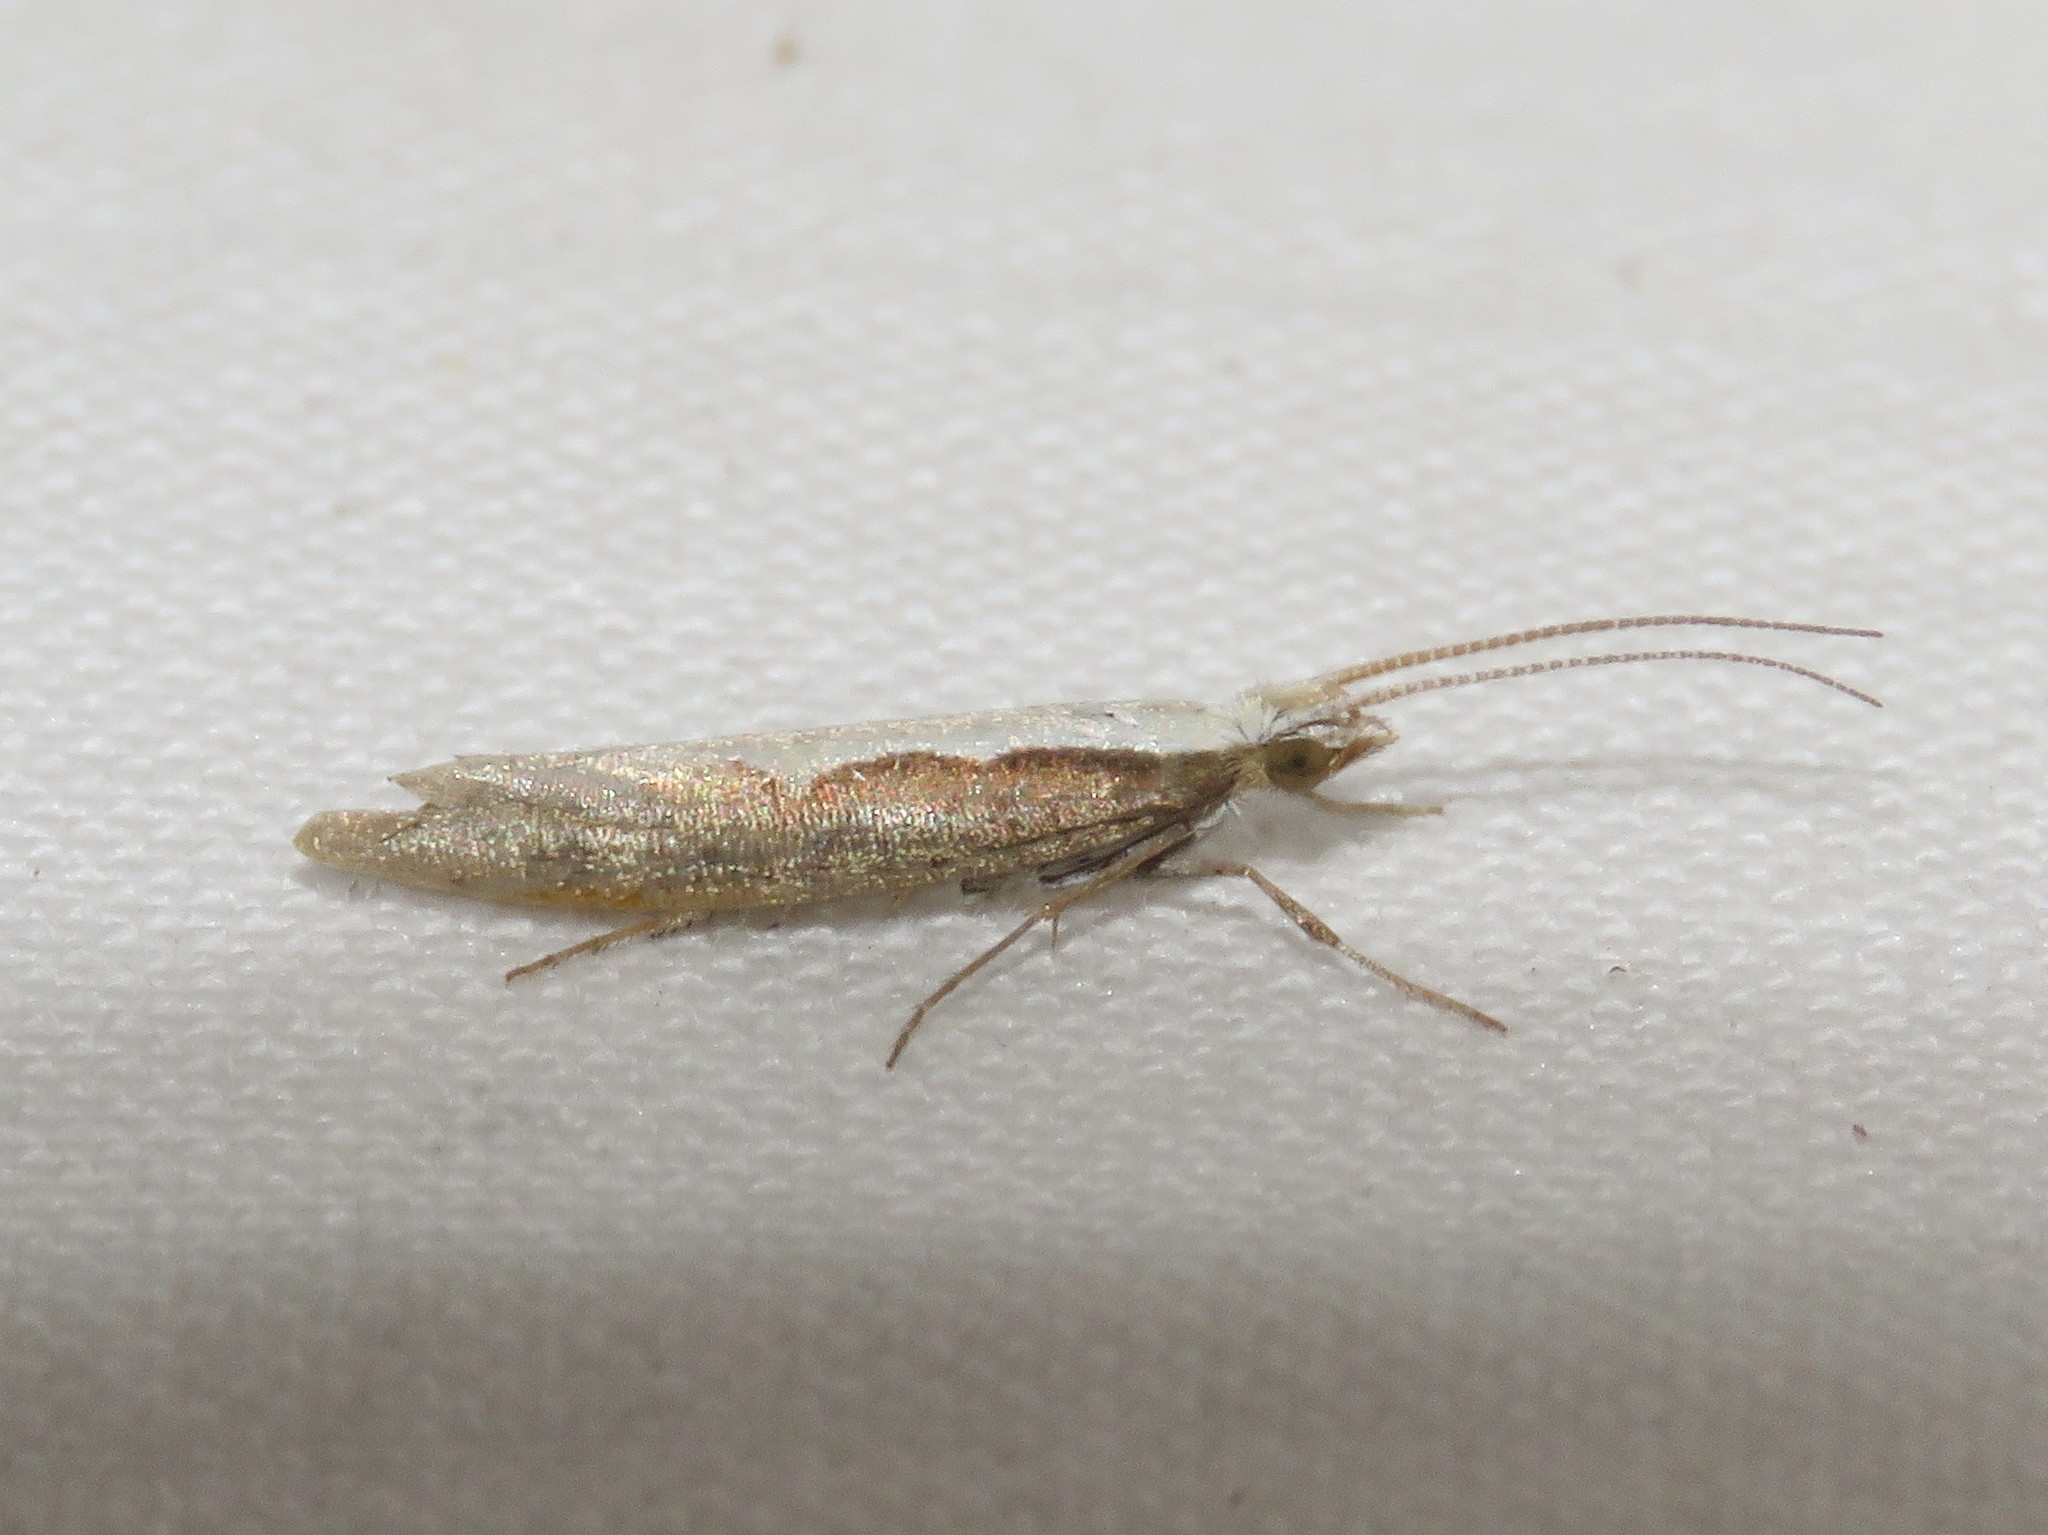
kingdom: Animalia
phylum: Arthropoda
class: Insecta
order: Lepidoptera
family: Plutellidae
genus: Plutella
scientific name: Plutella xylostella
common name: Diamond-back moth
